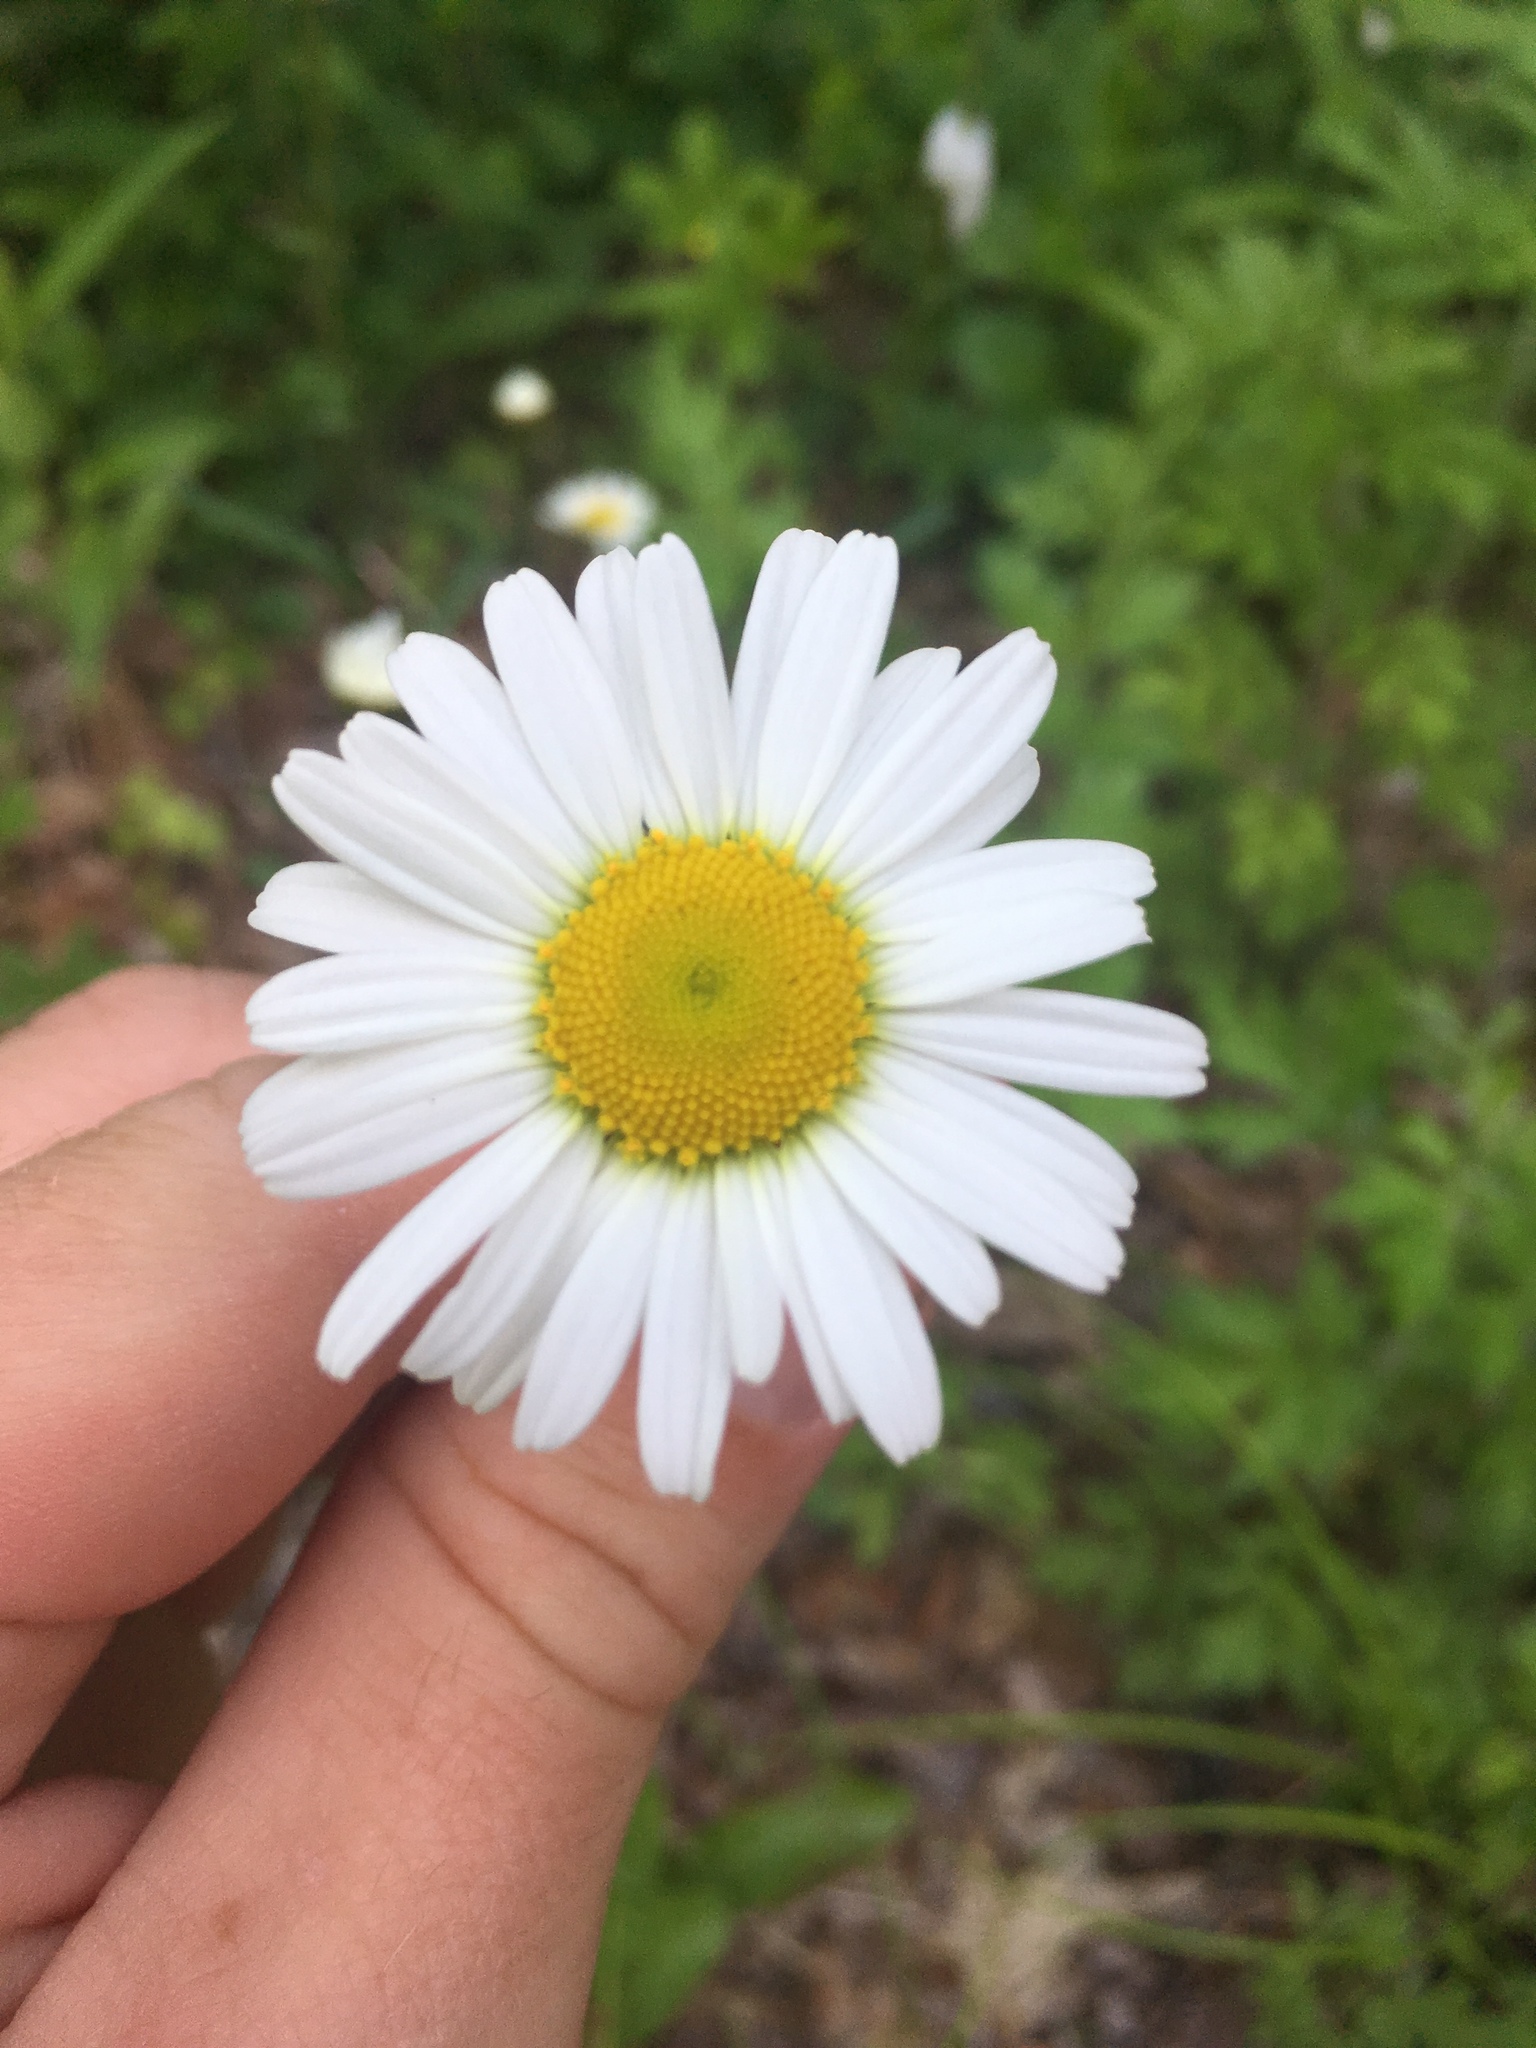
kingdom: Plantae
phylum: Tracheophyta
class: Magnoliopsida
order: Asterales
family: Asteraceae
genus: Leucanthemum
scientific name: Leucanthemum vulgare
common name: Oxeye daisy
